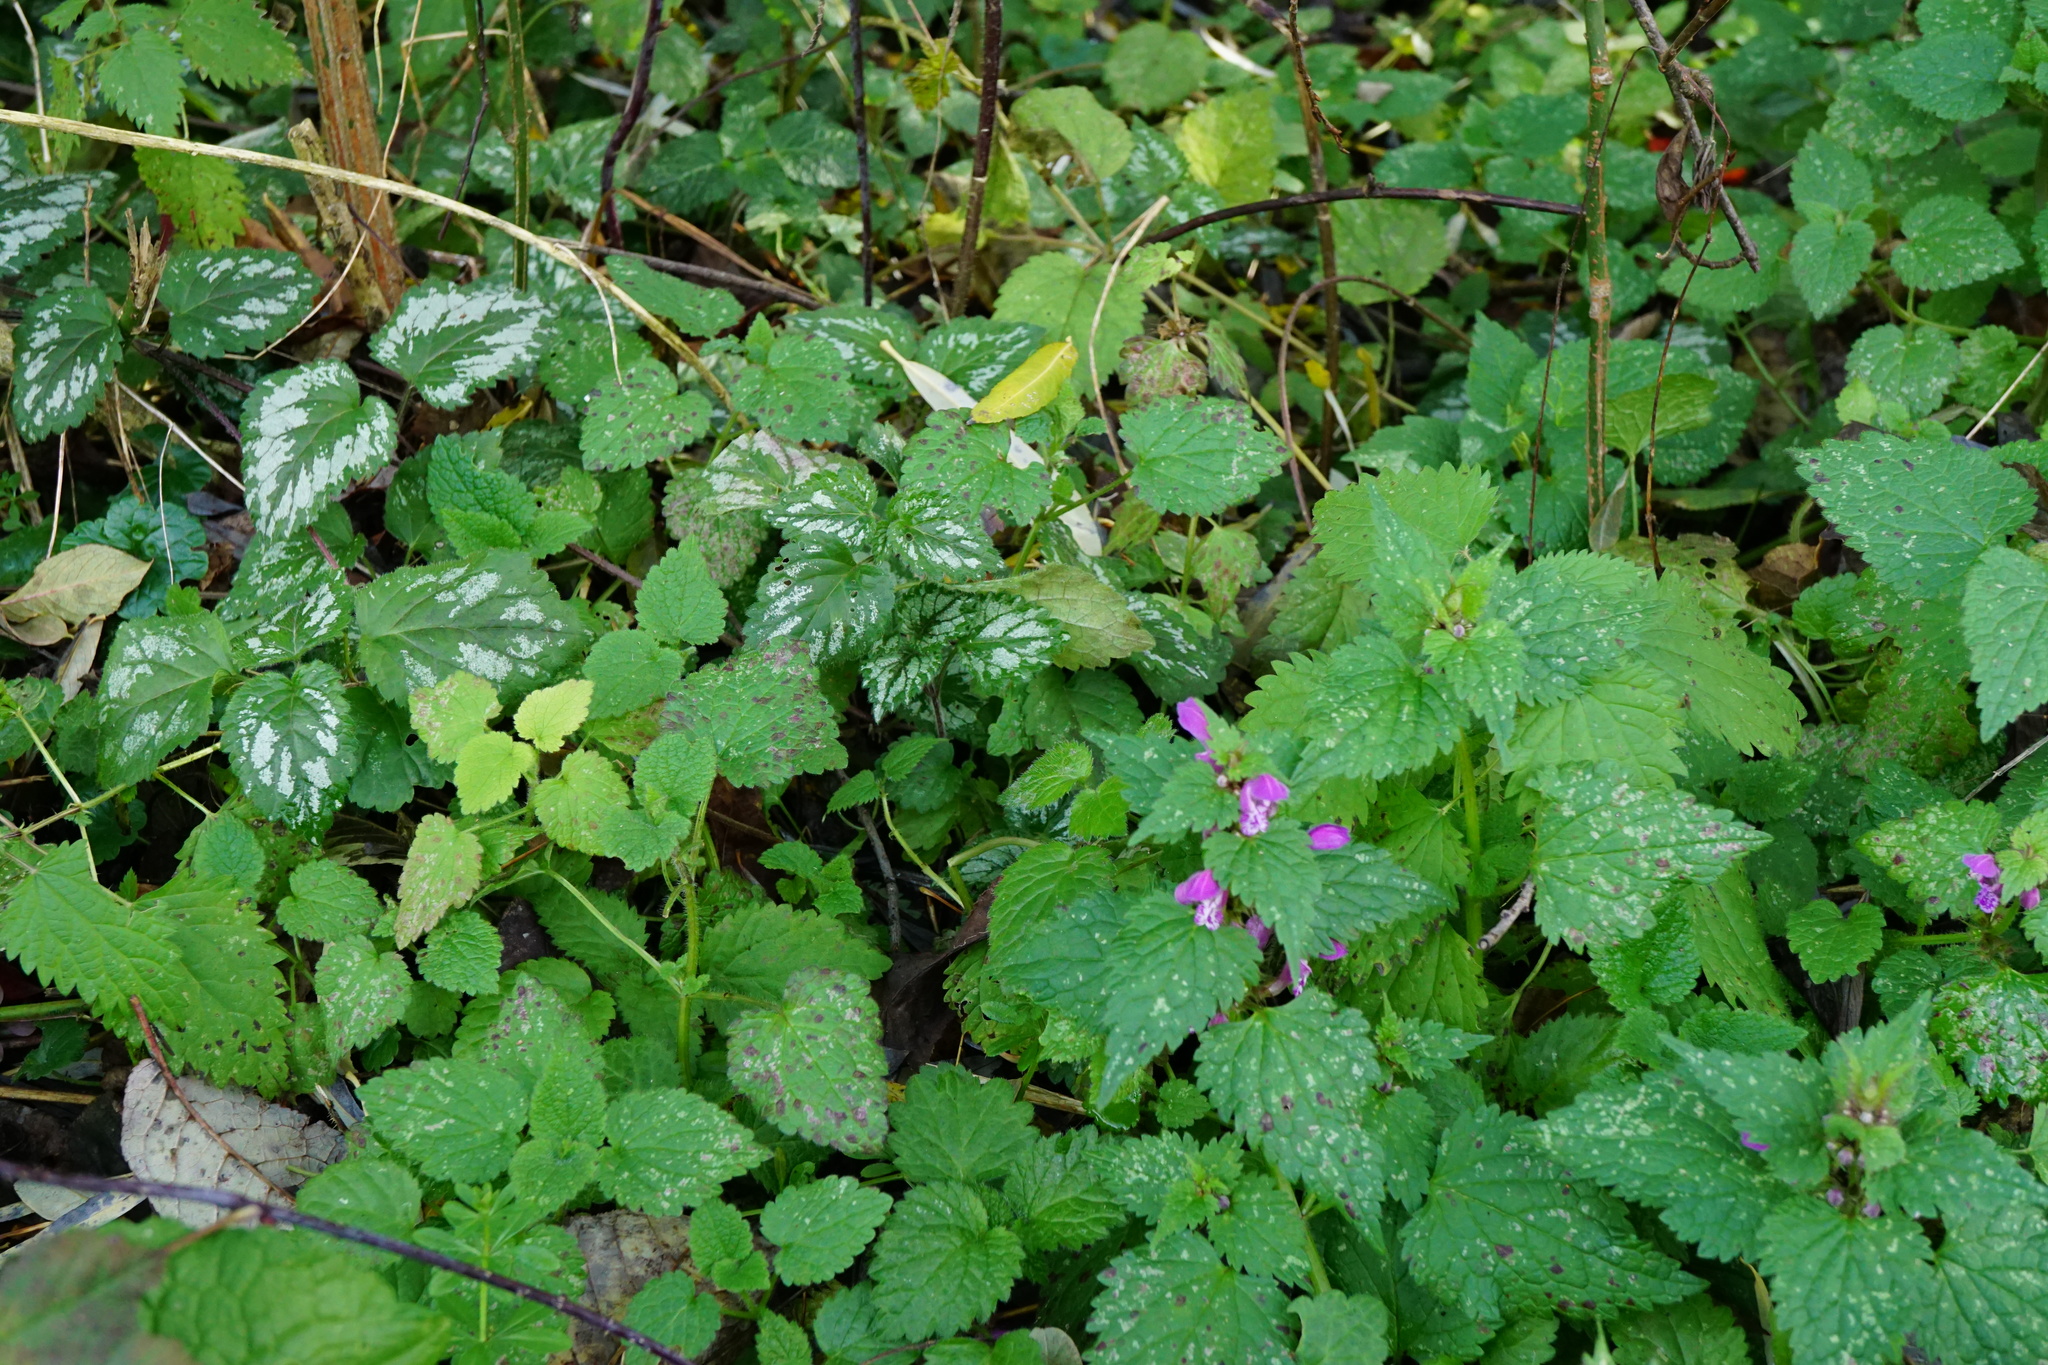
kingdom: Plantae
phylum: Tracheophyta
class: Magnoliopsida
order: Lamiales
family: Lamiaceae
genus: Lamium
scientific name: Lamium maculatum
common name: Spotted dead-nettle
